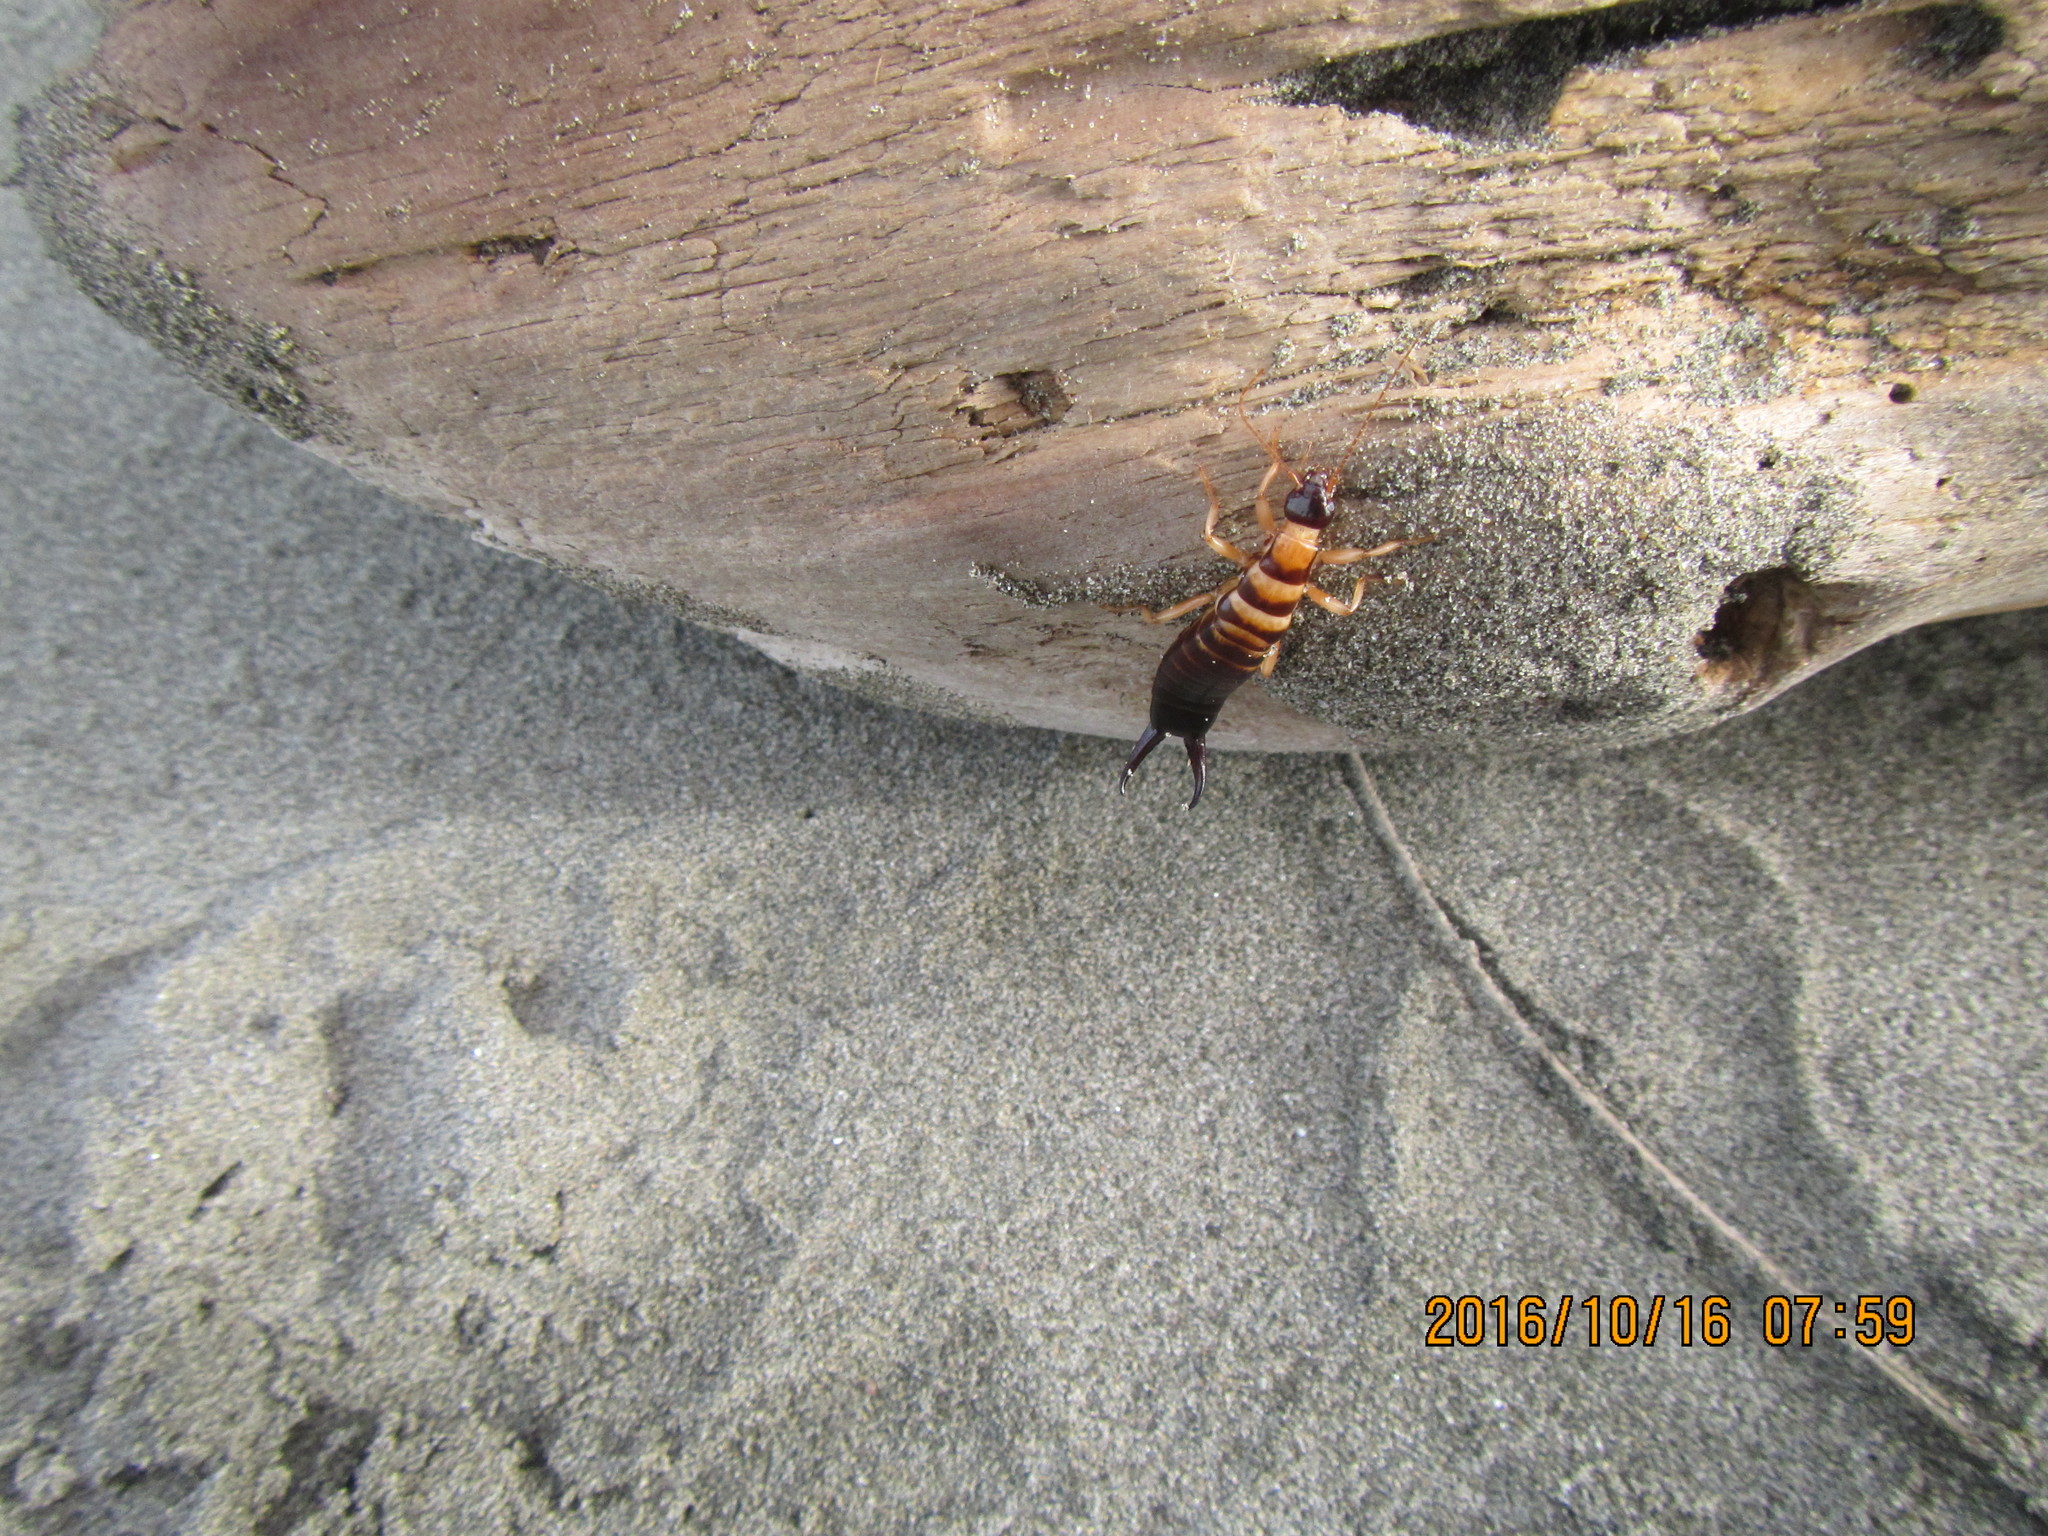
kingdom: Animalia
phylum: Arthropoda
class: Insecta
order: Dermaptera
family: Anisolabididae
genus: Anisolabis
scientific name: Anisolabis littorea
